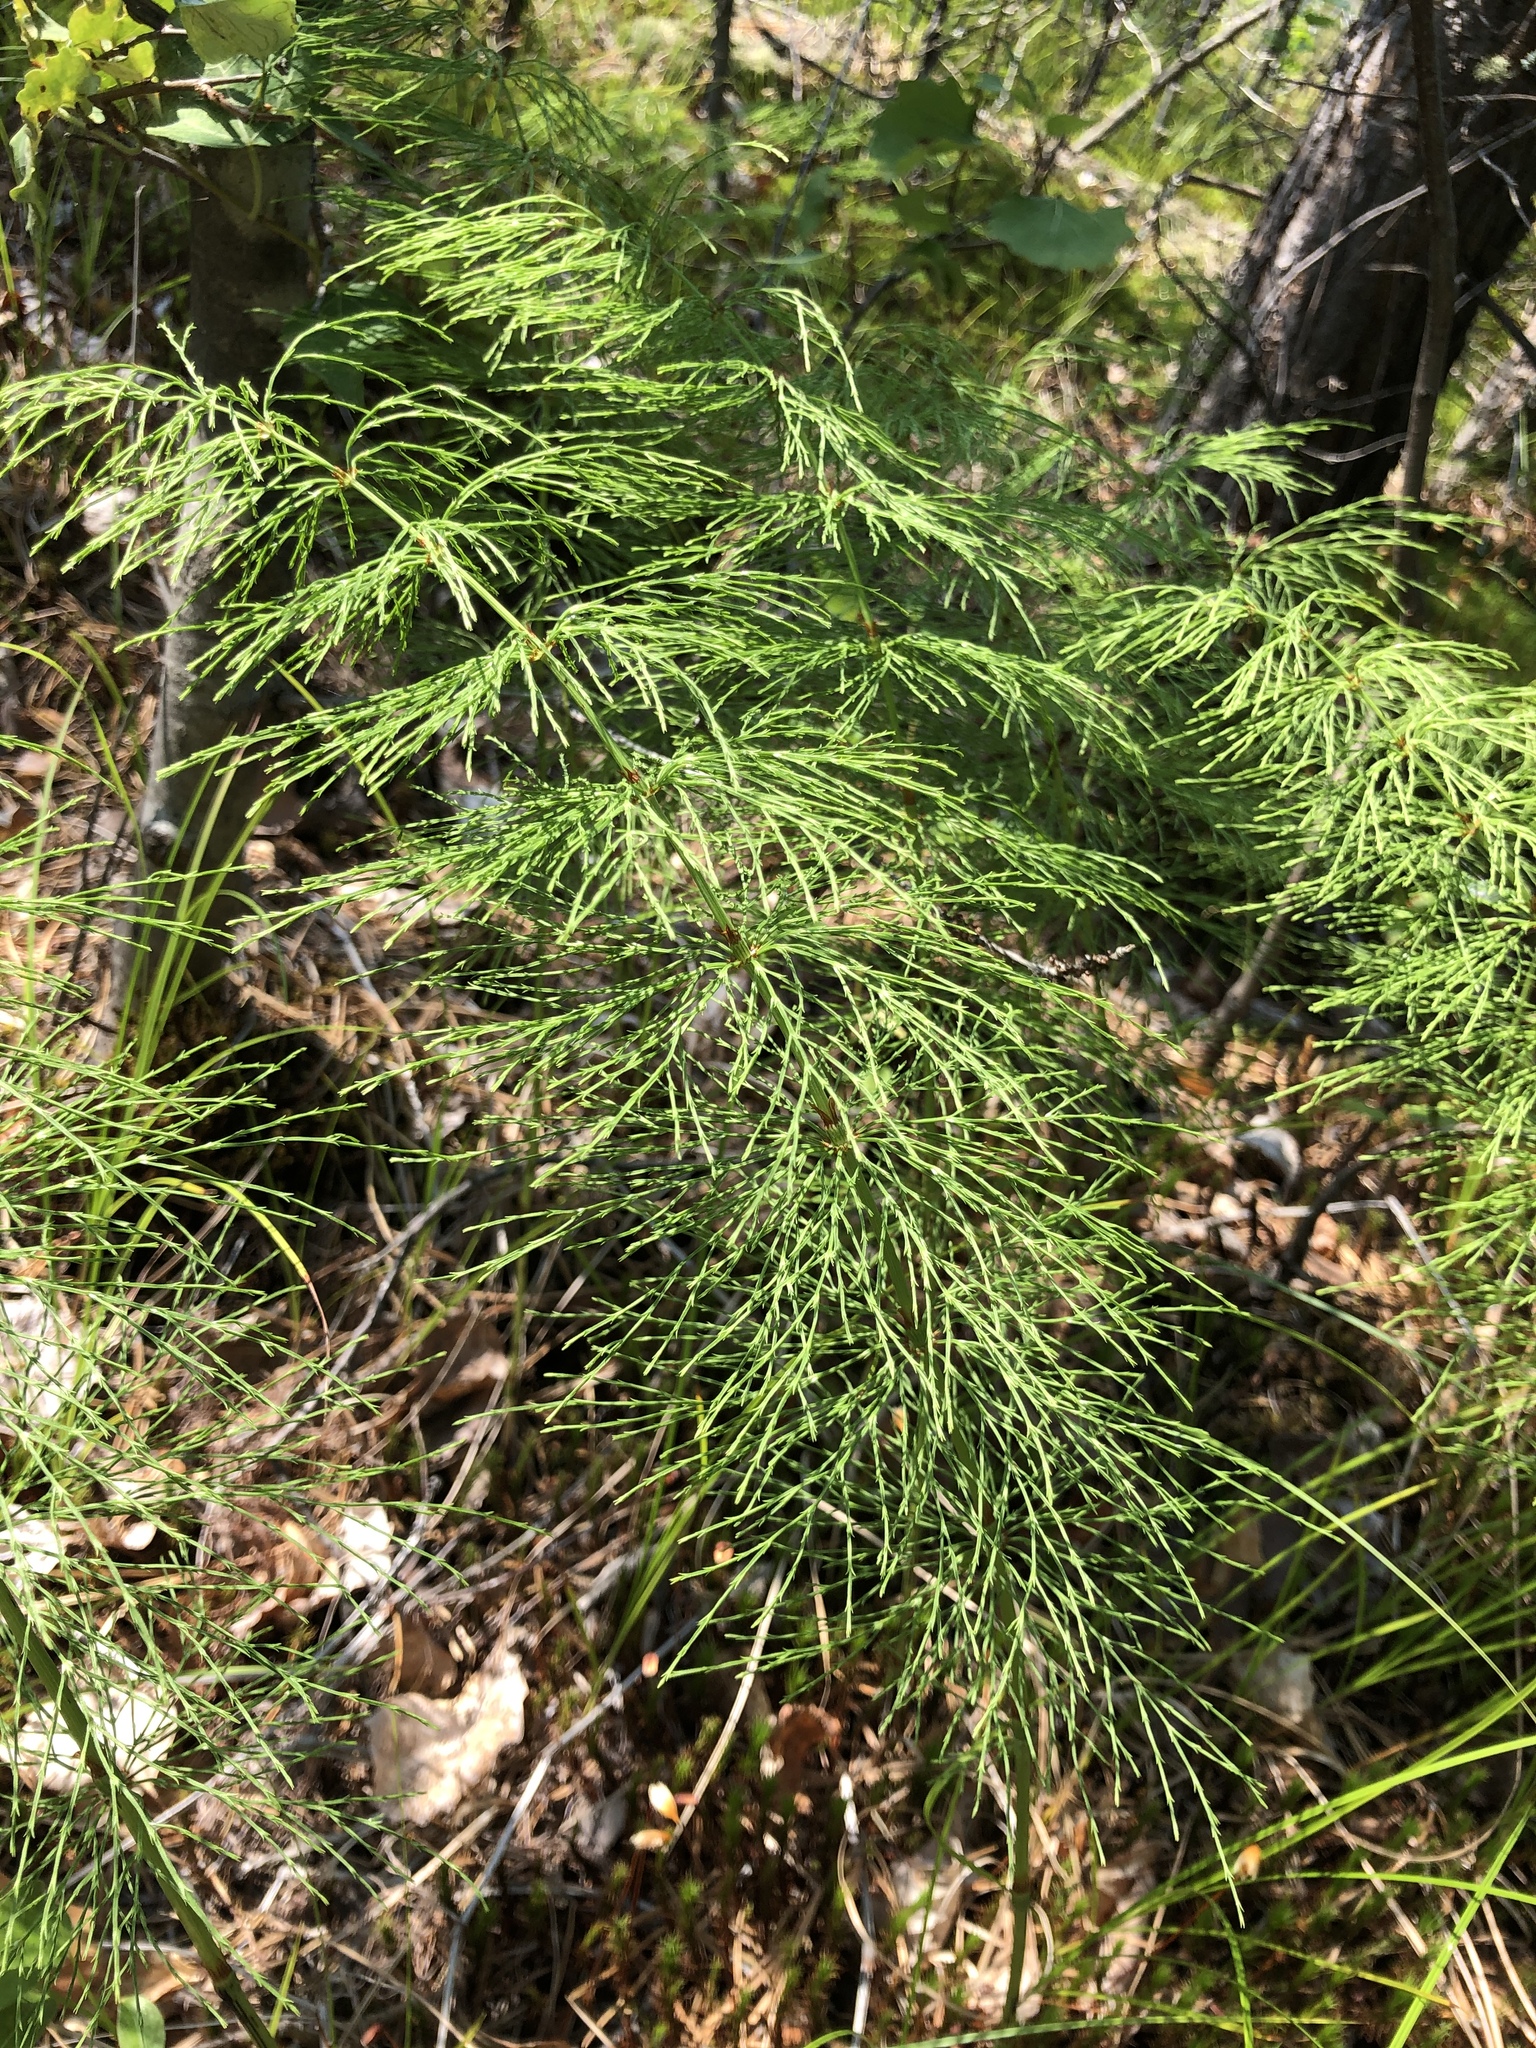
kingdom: Plantae
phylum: Tracheophyta
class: Polypodiopsida
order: Equisetales
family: Equisetaceae
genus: Equisetum
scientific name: Equisetum sylvaticum
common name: Wood horsetail
